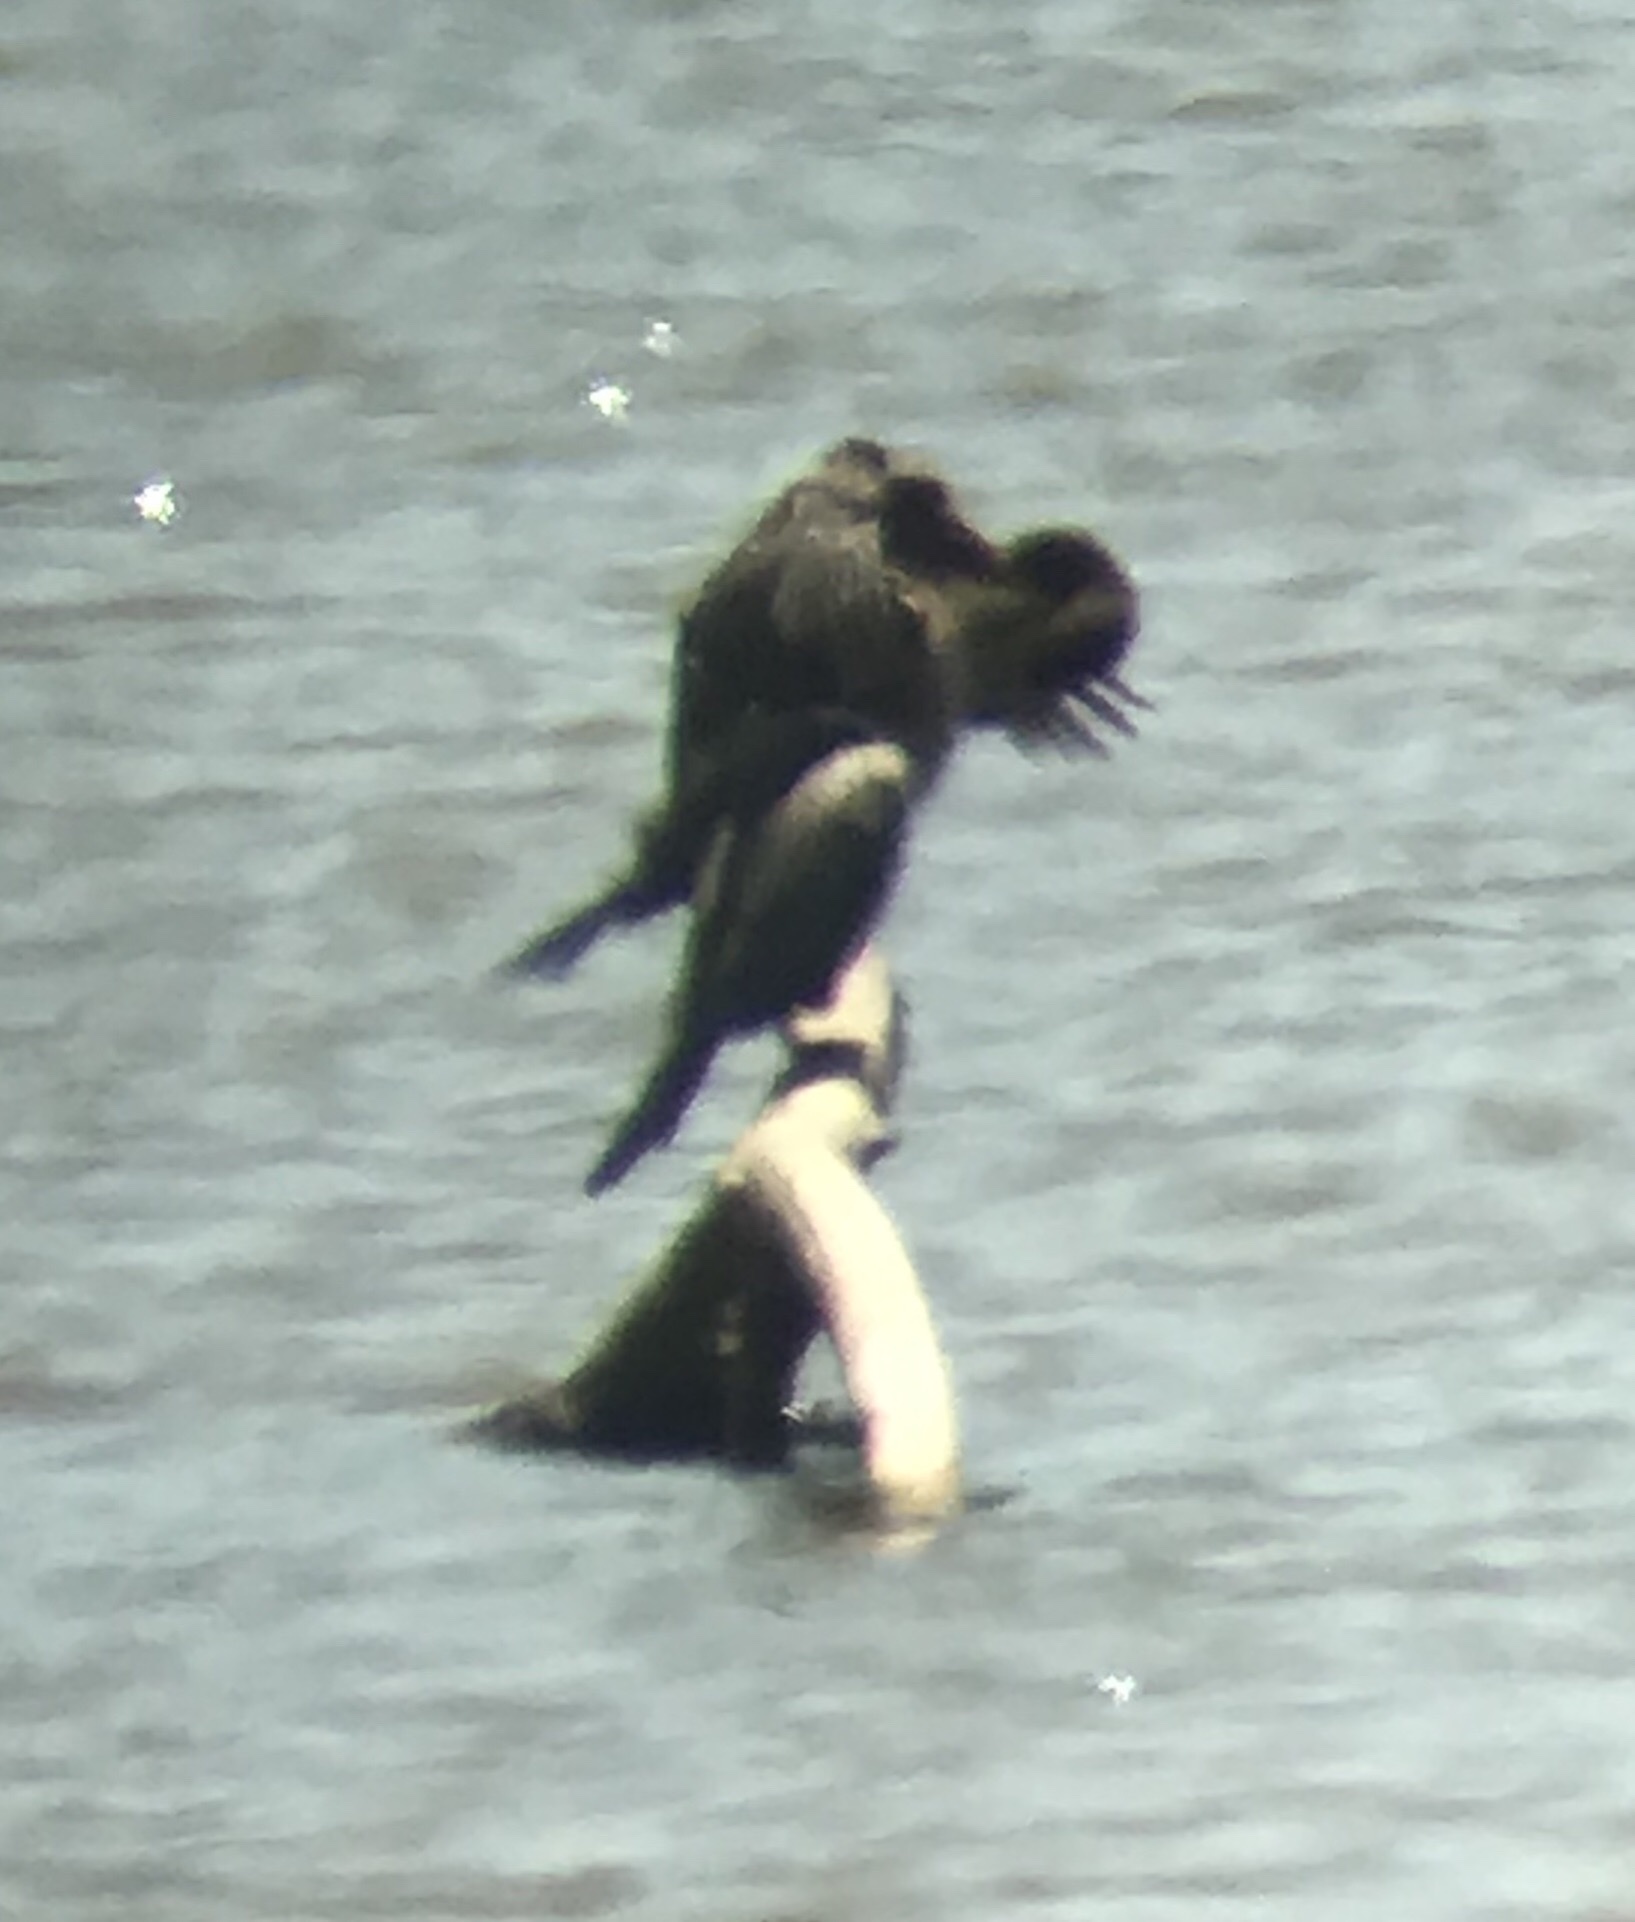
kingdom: Animalia
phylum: Chordata
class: Aves
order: Suliformes
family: Phalacrocoracidae
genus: Phalacrocorax
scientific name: Phalacrocorax auritus
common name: Double-crested cormorant
